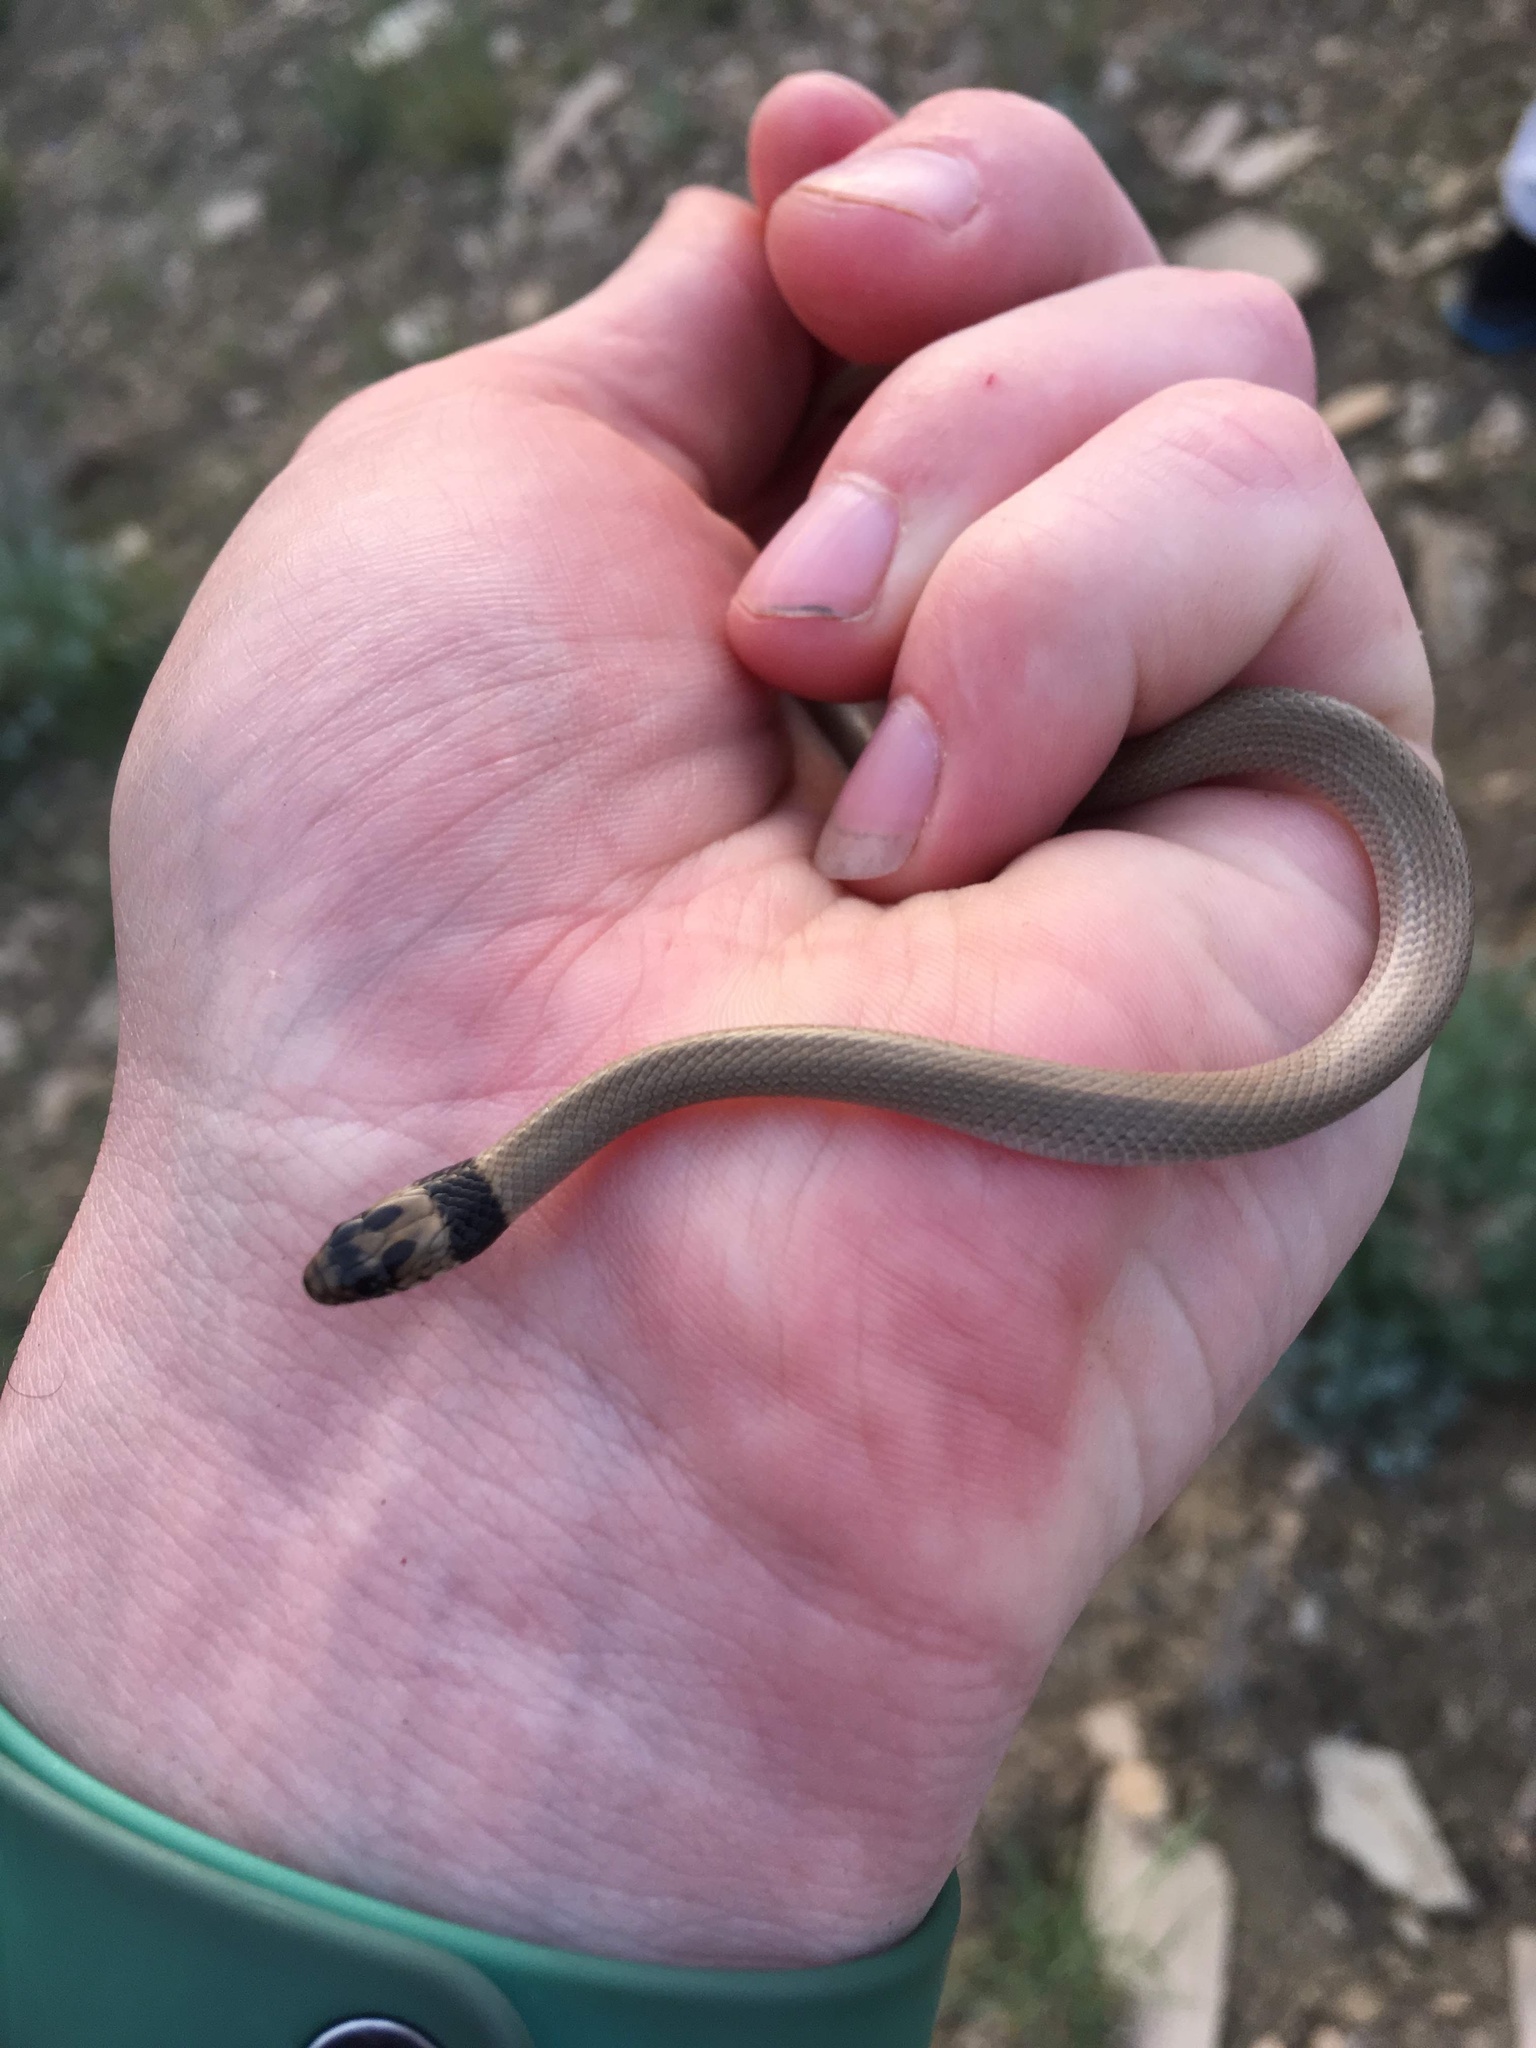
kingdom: Animalia
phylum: Chordata
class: Squamata
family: Colubridae
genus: Eirenis
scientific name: Eirenis collaris
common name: Collared dwarf racer
